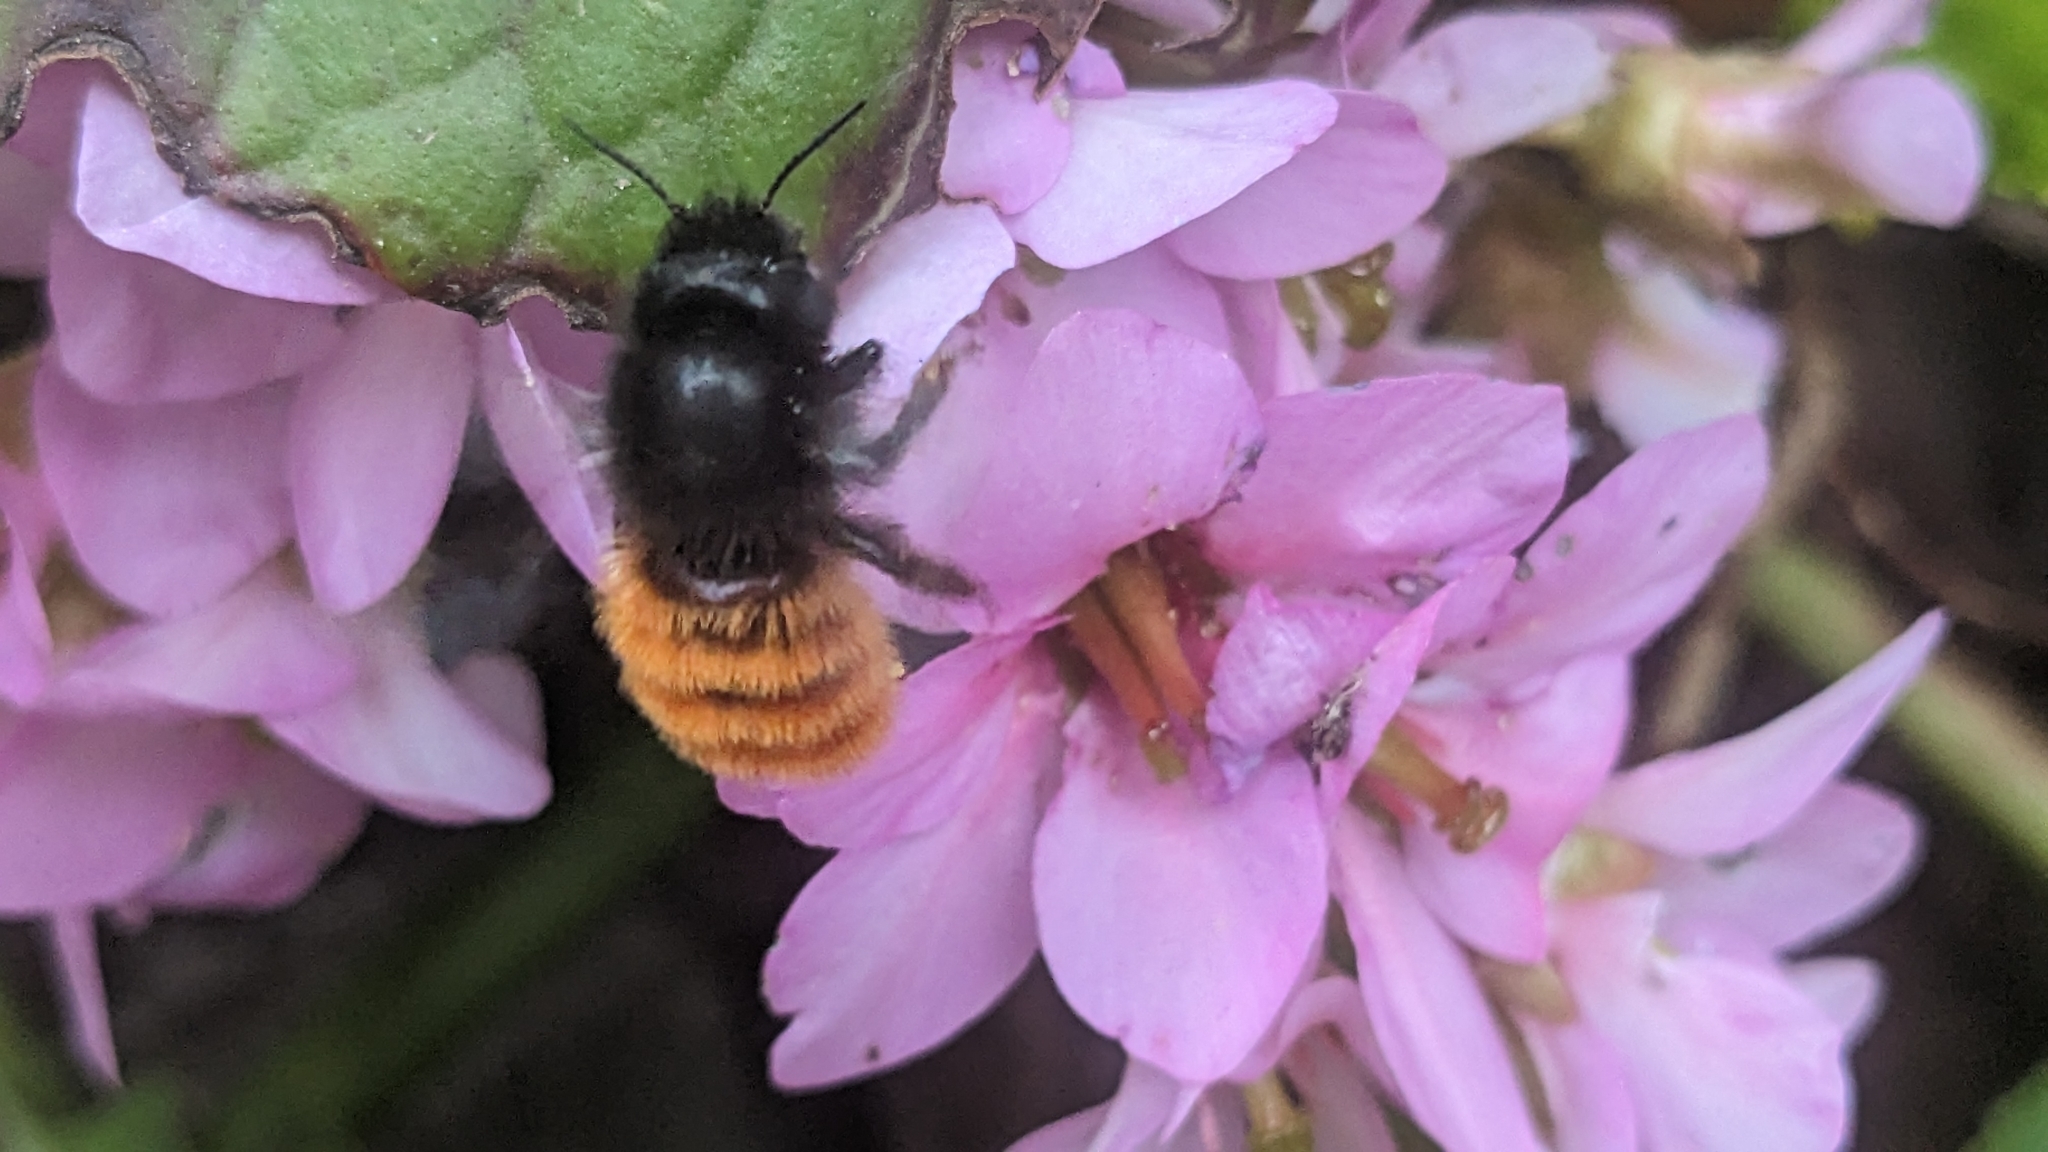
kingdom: Animalia
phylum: Arthropoda
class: Insecta
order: Hymenoptera
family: Megachilidae
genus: Osmia
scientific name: Osmia cornuta
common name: Mason bee
